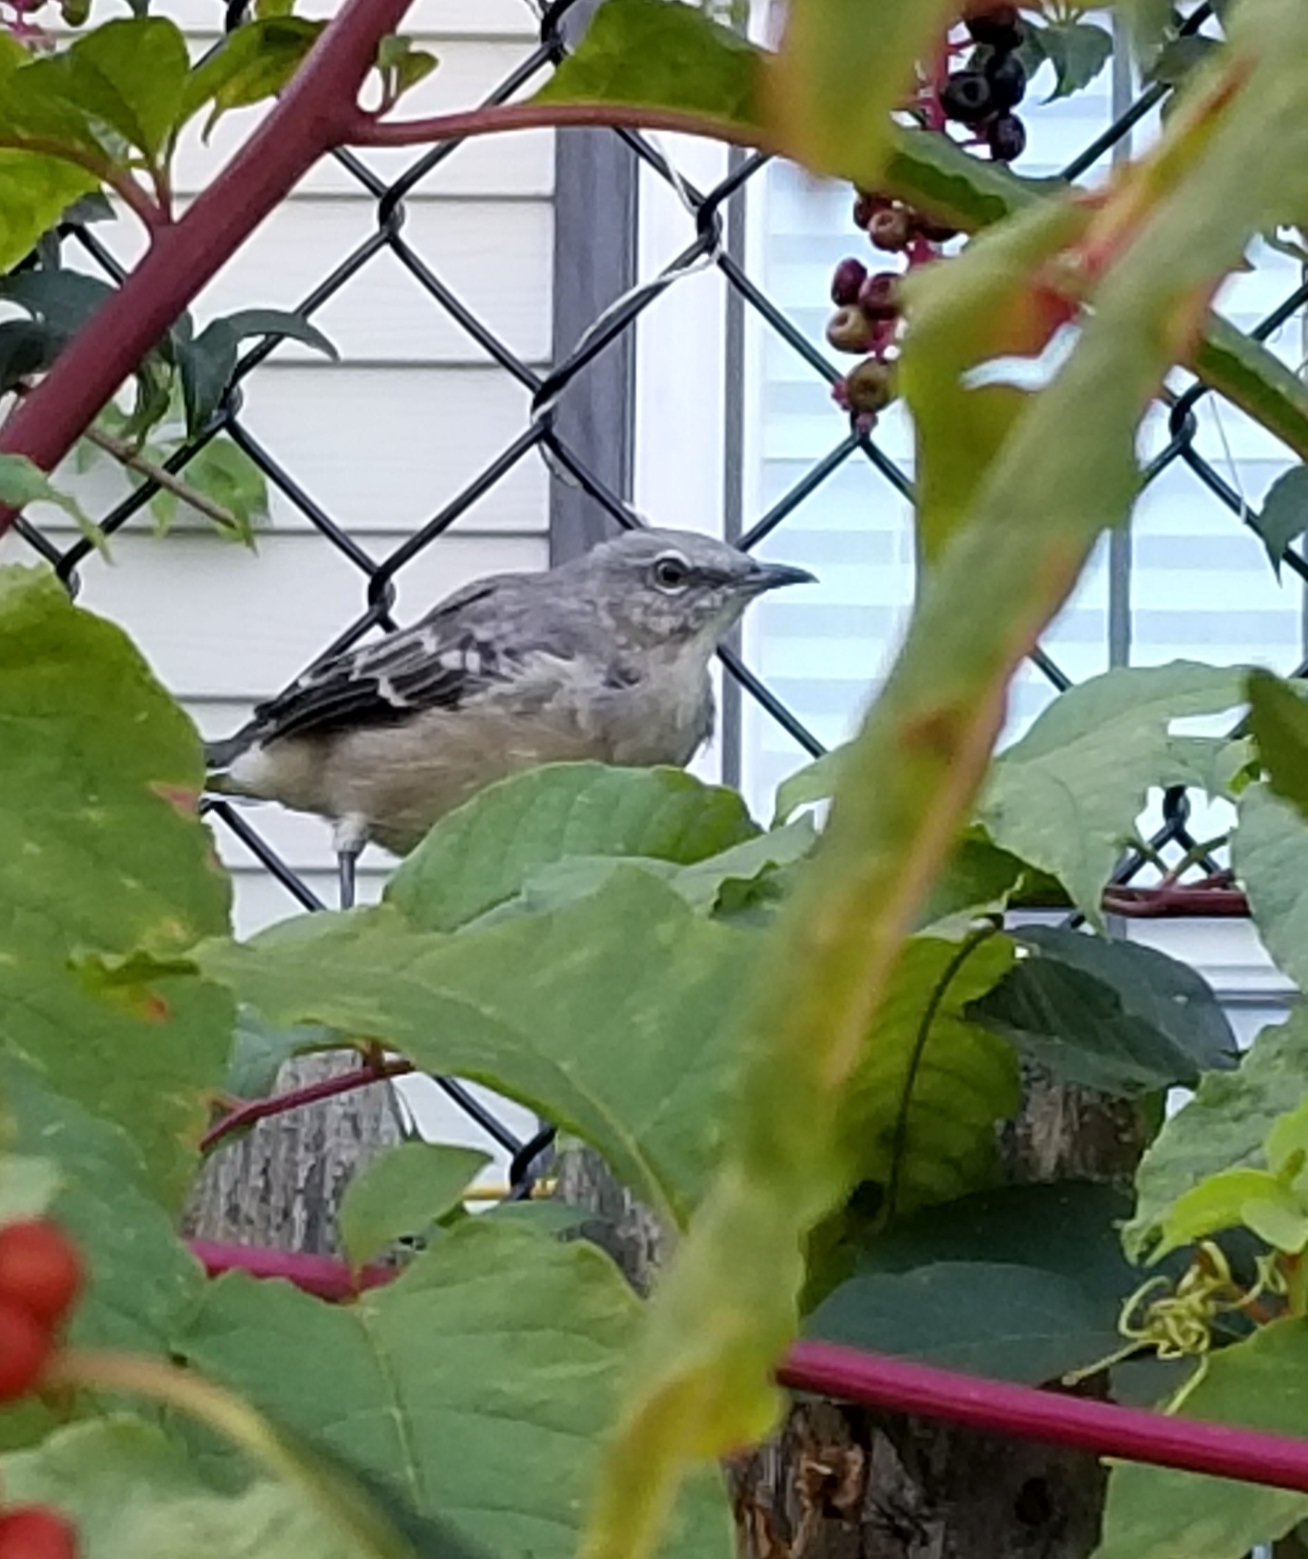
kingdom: Animalia
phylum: Chordata
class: Aves
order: Passeriformes
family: Mimidae
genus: Mimus
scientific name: Mimus polyglottos
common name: Northern mockingbird
